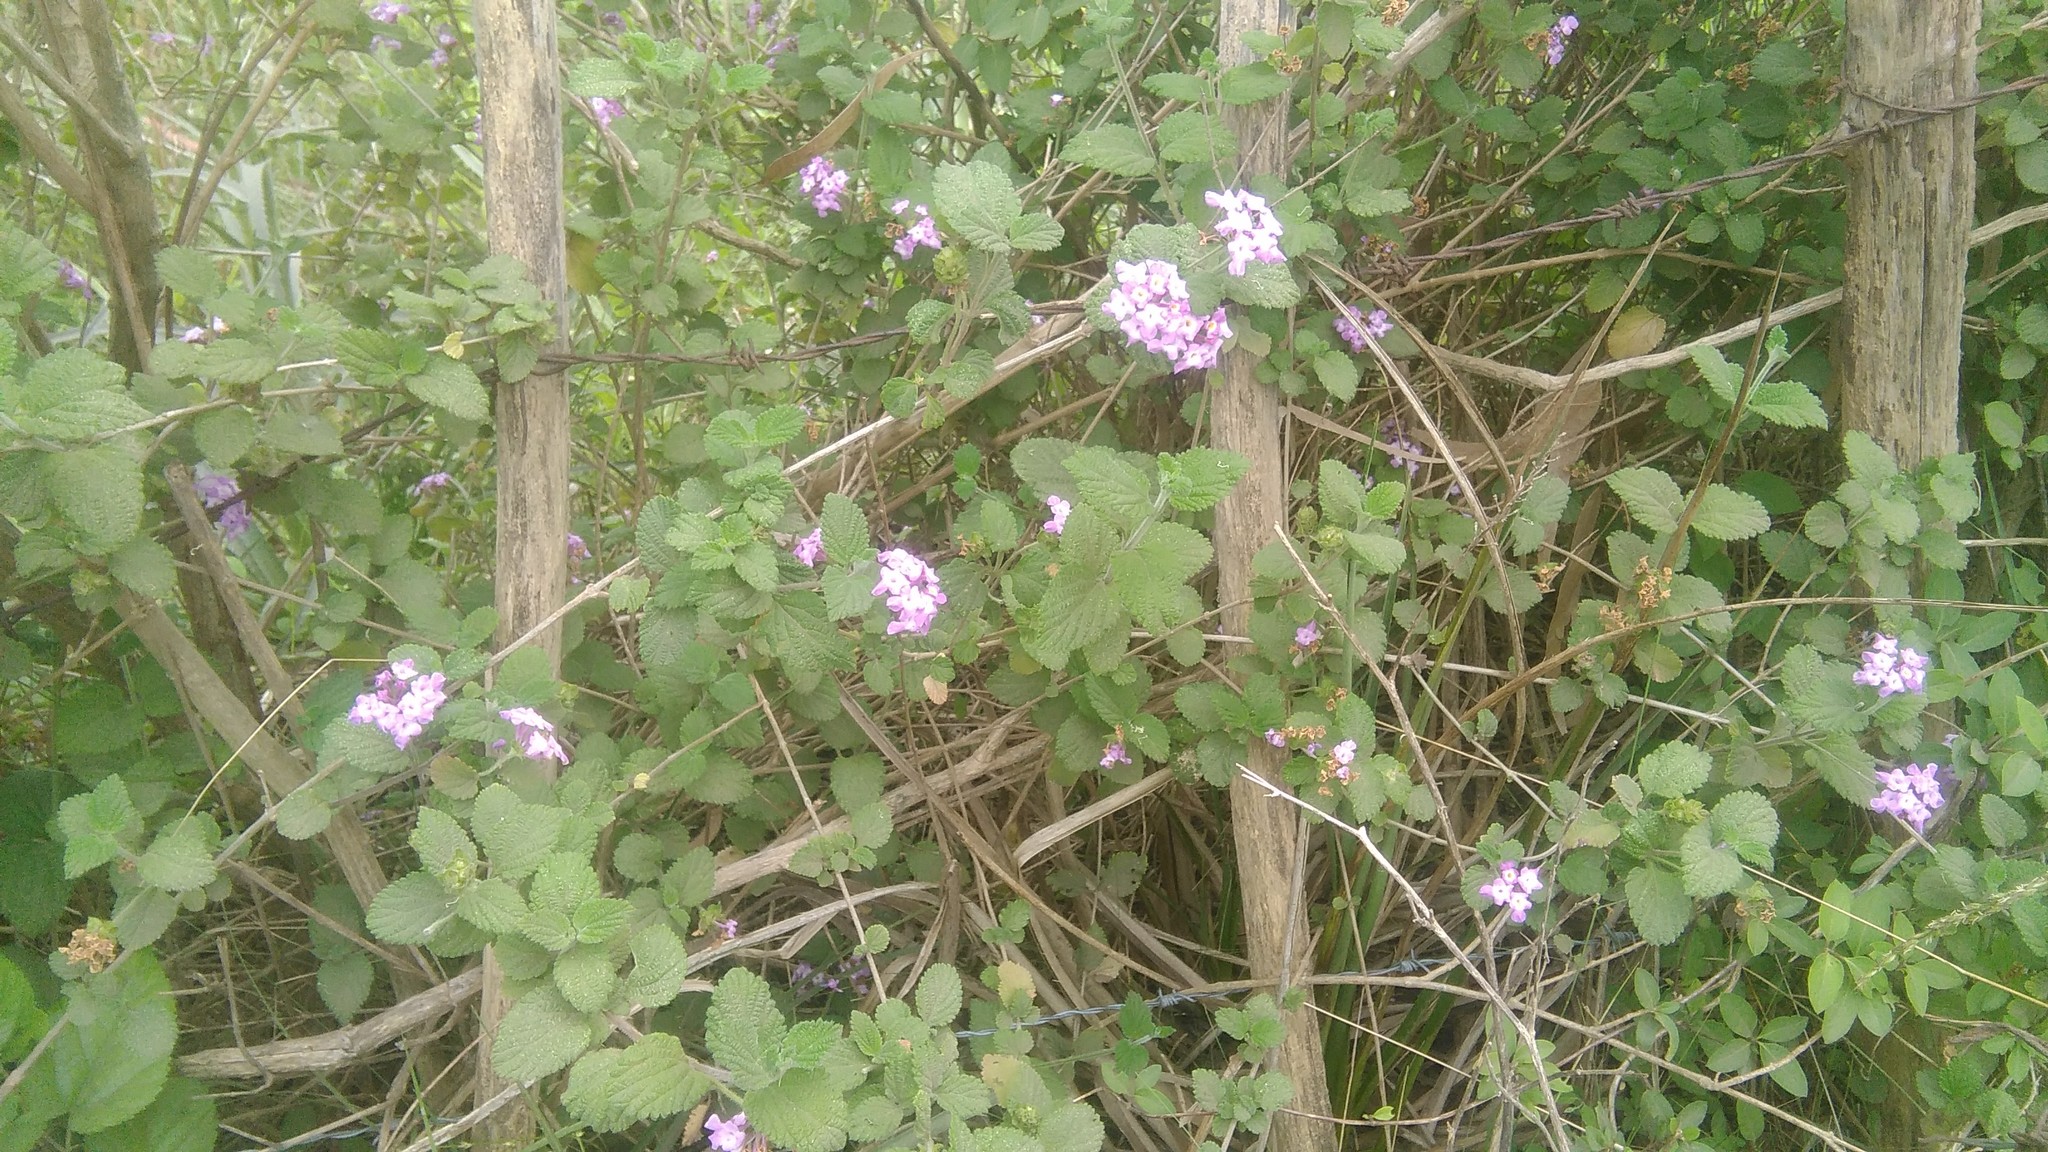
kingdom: Plantae
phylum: Tracheophyta
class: Magnoliopsida
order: Lamiales
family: Verbenaceae
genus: Lantana
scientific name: Lantana megapotamica
